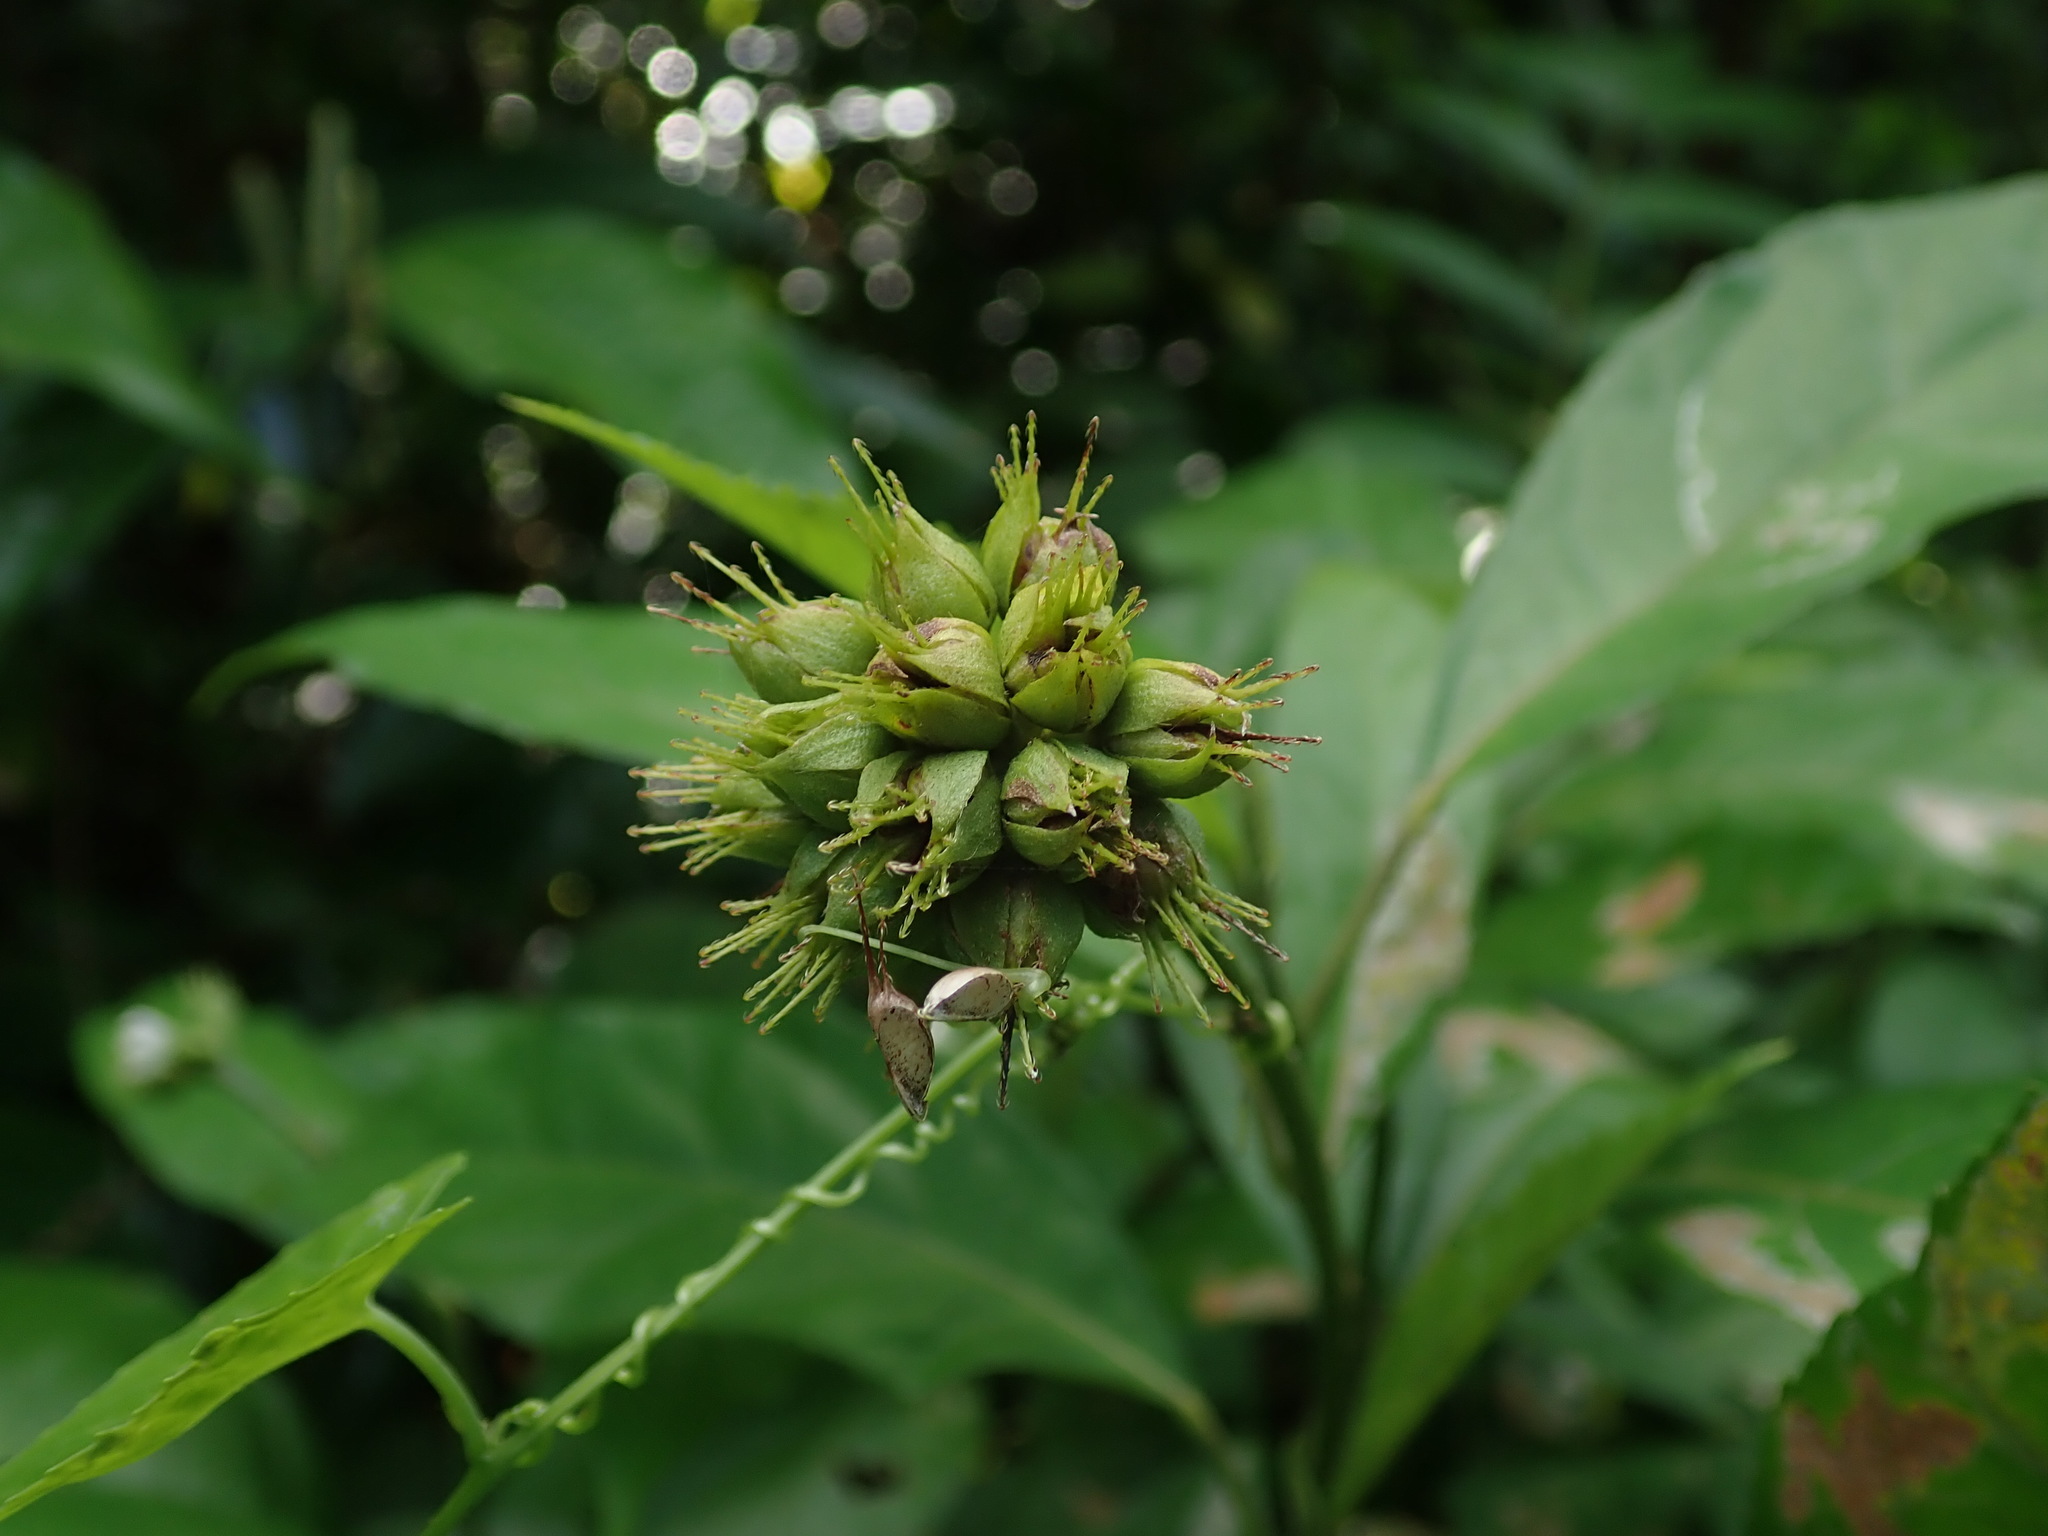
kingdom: Plantae
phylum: Tracheophyta
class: Magnoliopsida
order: Malvales
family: Malvaceae
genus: Pavonia
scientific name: Pavonia fruticosa
